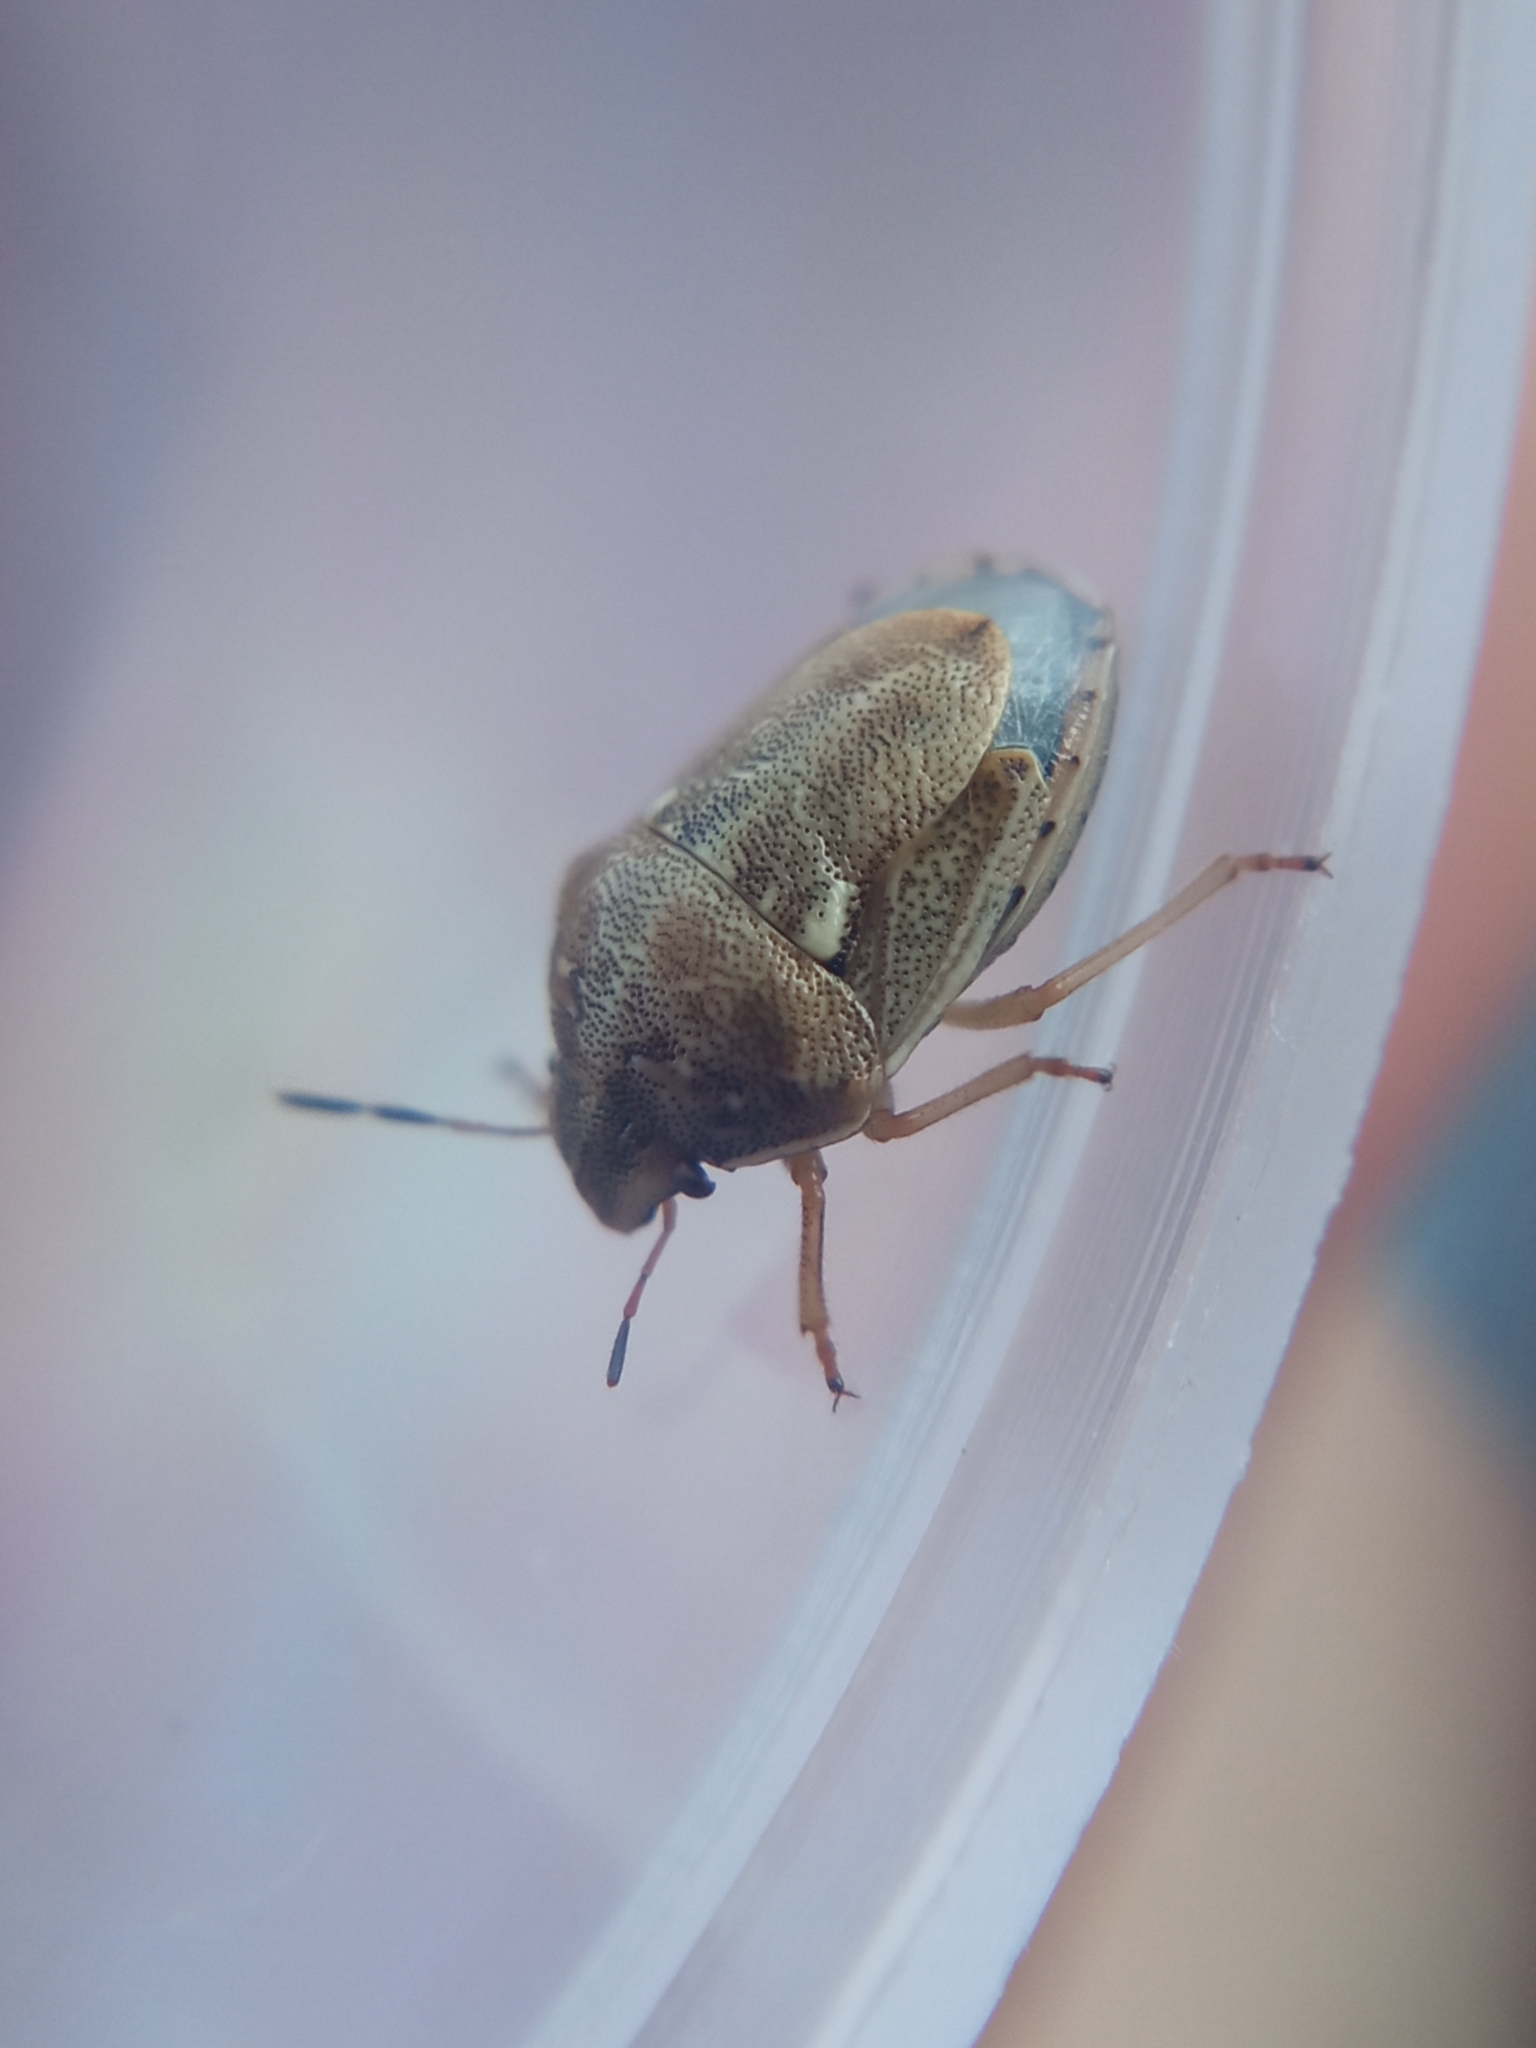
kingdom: Animalia
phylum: Arthropoda
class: Insecta
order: Hemiptera
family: Pentatomidae
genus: Neottiglossa
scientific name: Neottiglossa leporina
